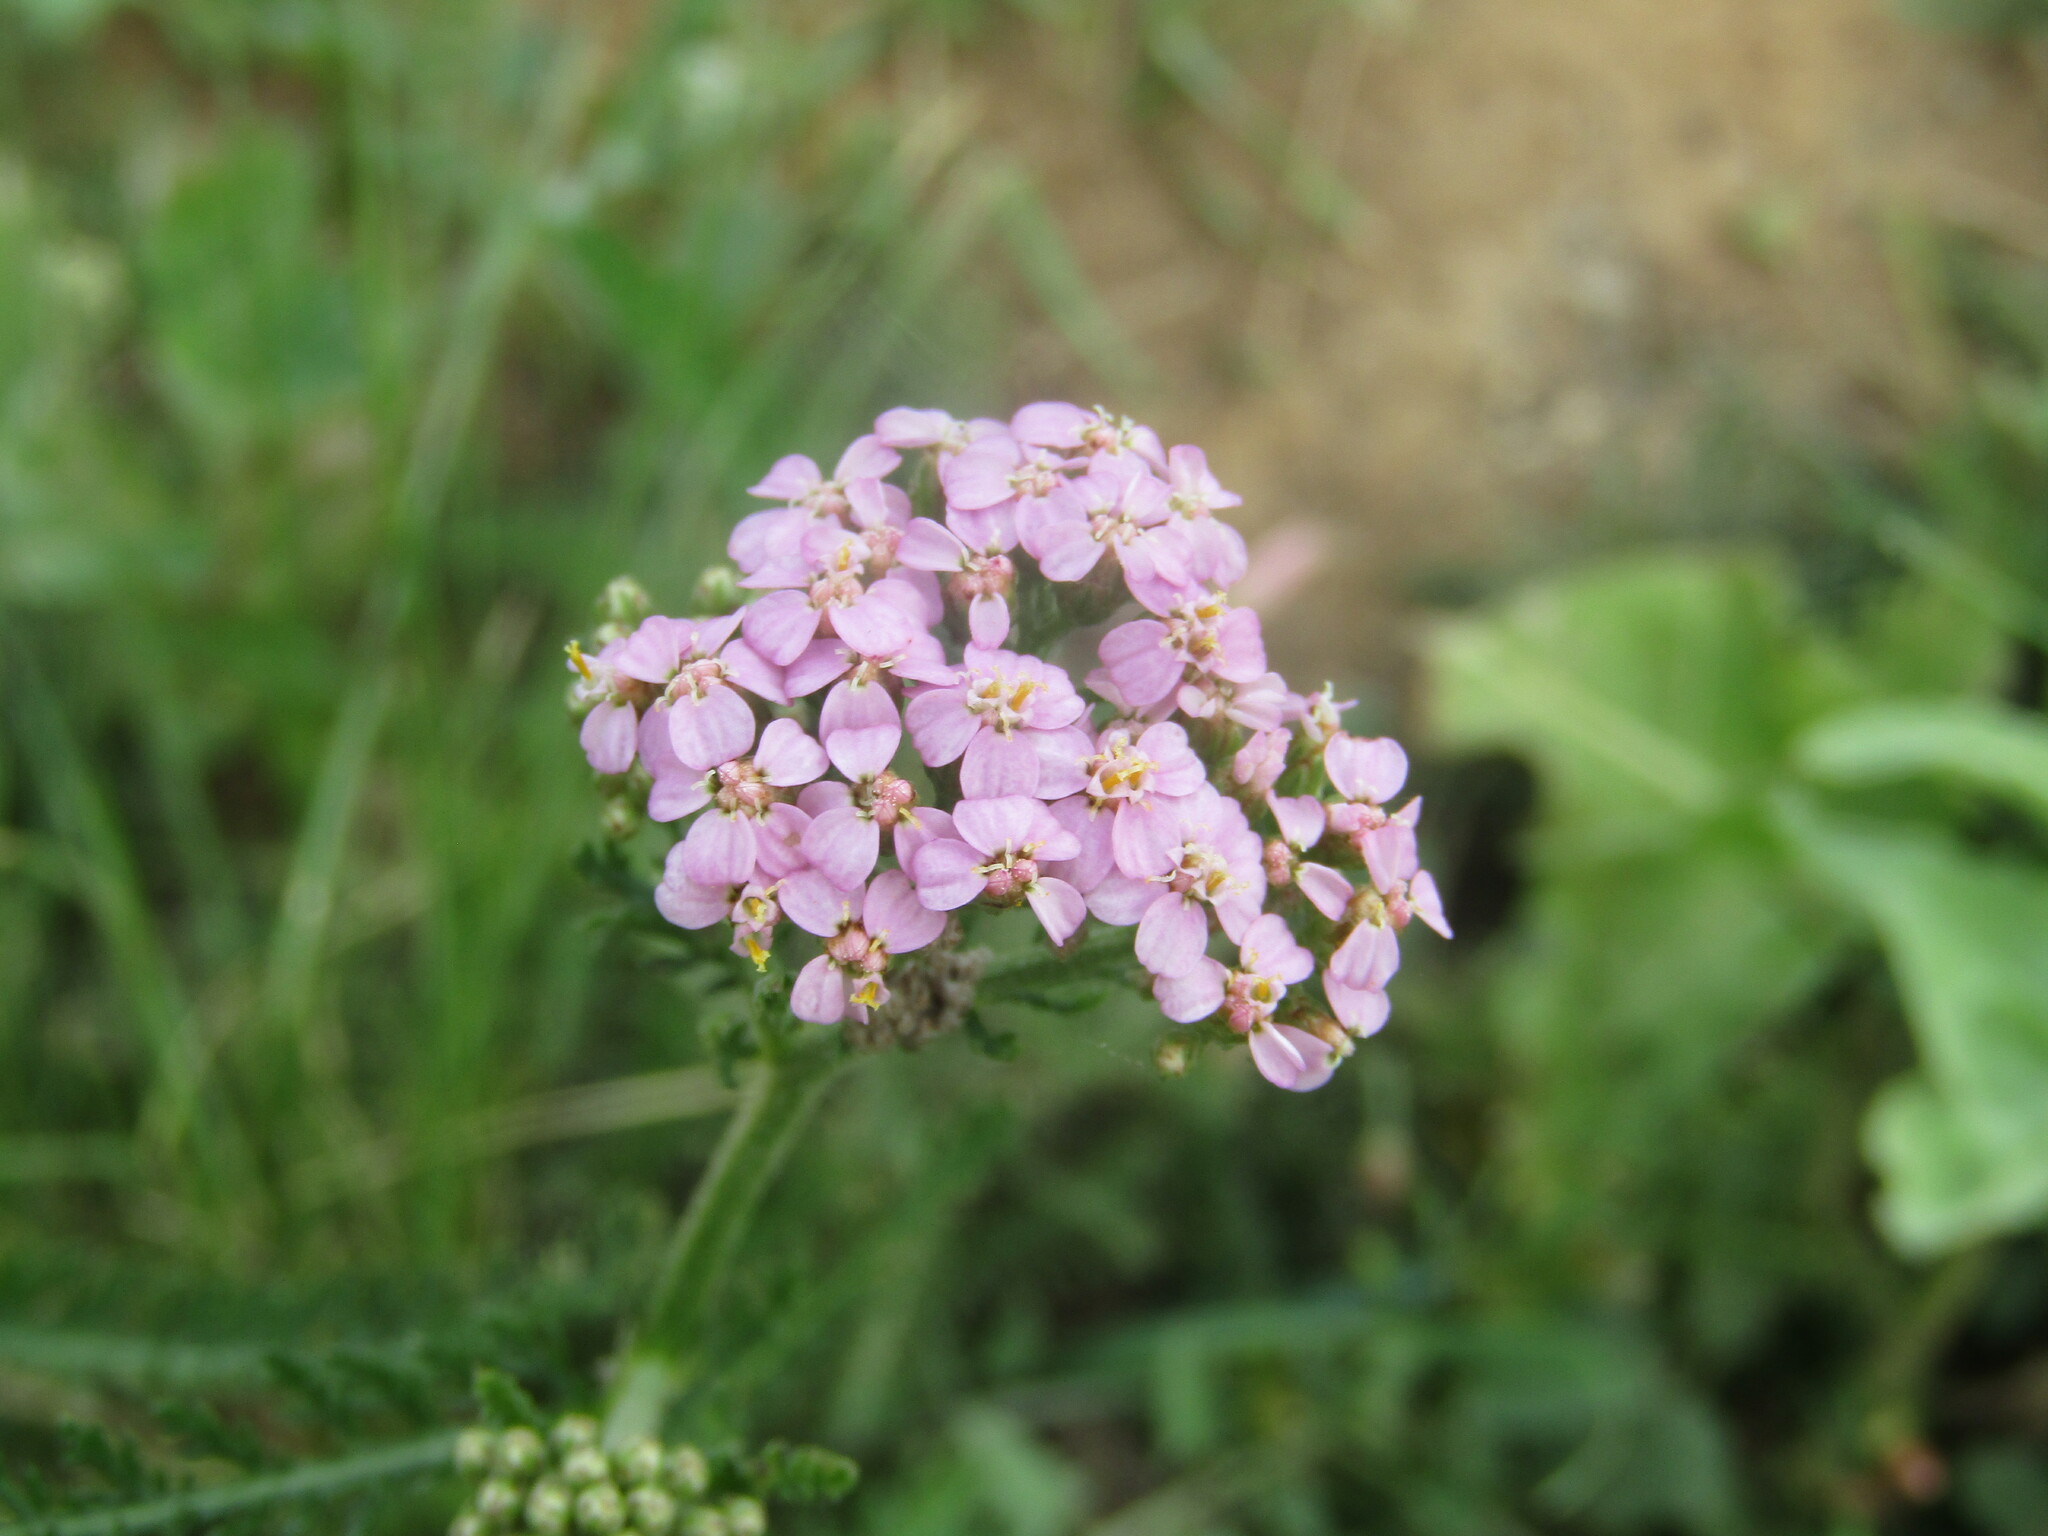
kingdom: Plantae
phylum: Tracheophyta
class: Magnoliopsida
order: Asterales
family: Asteraceae
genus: Achillea
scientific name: Achillea millefolium
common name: Yarrow
